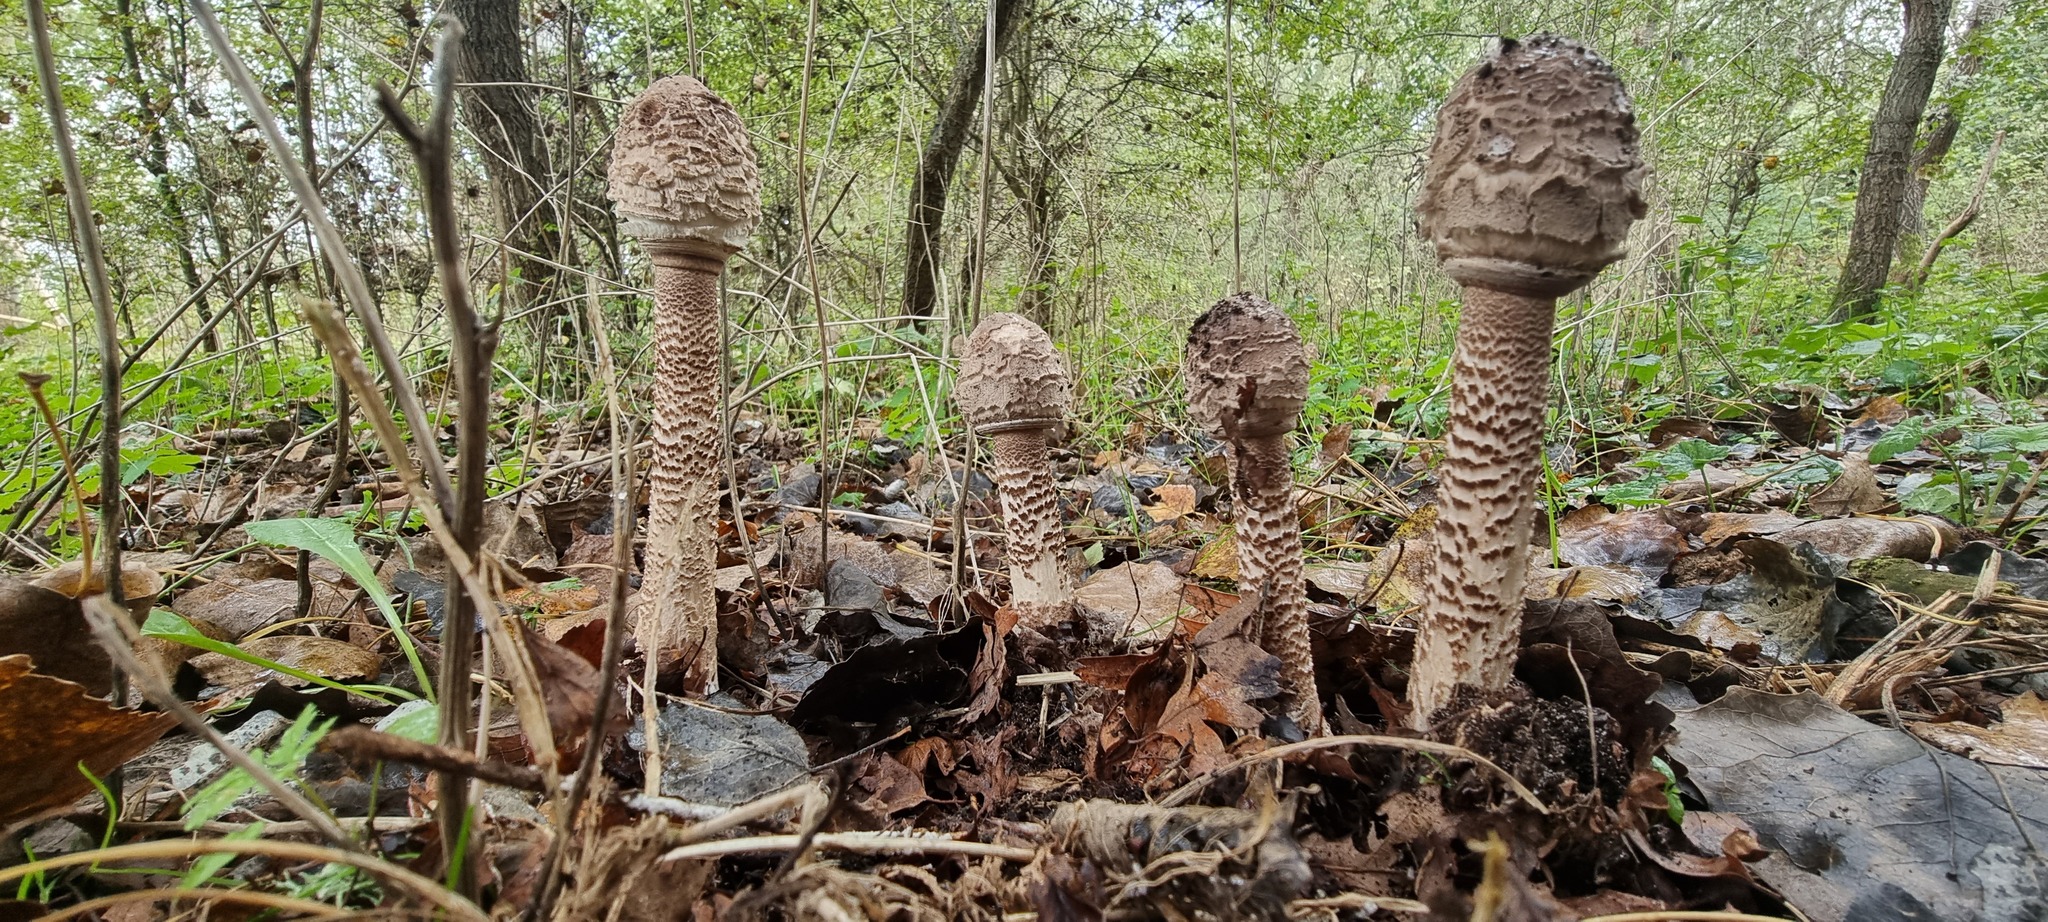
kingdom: Fungi
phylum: Basidiomycota
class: Agaricomycetes
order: Agaricales
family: Agaricaceae
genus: Macrolepiota
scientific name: Macrolepiota procera
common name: Parasol
